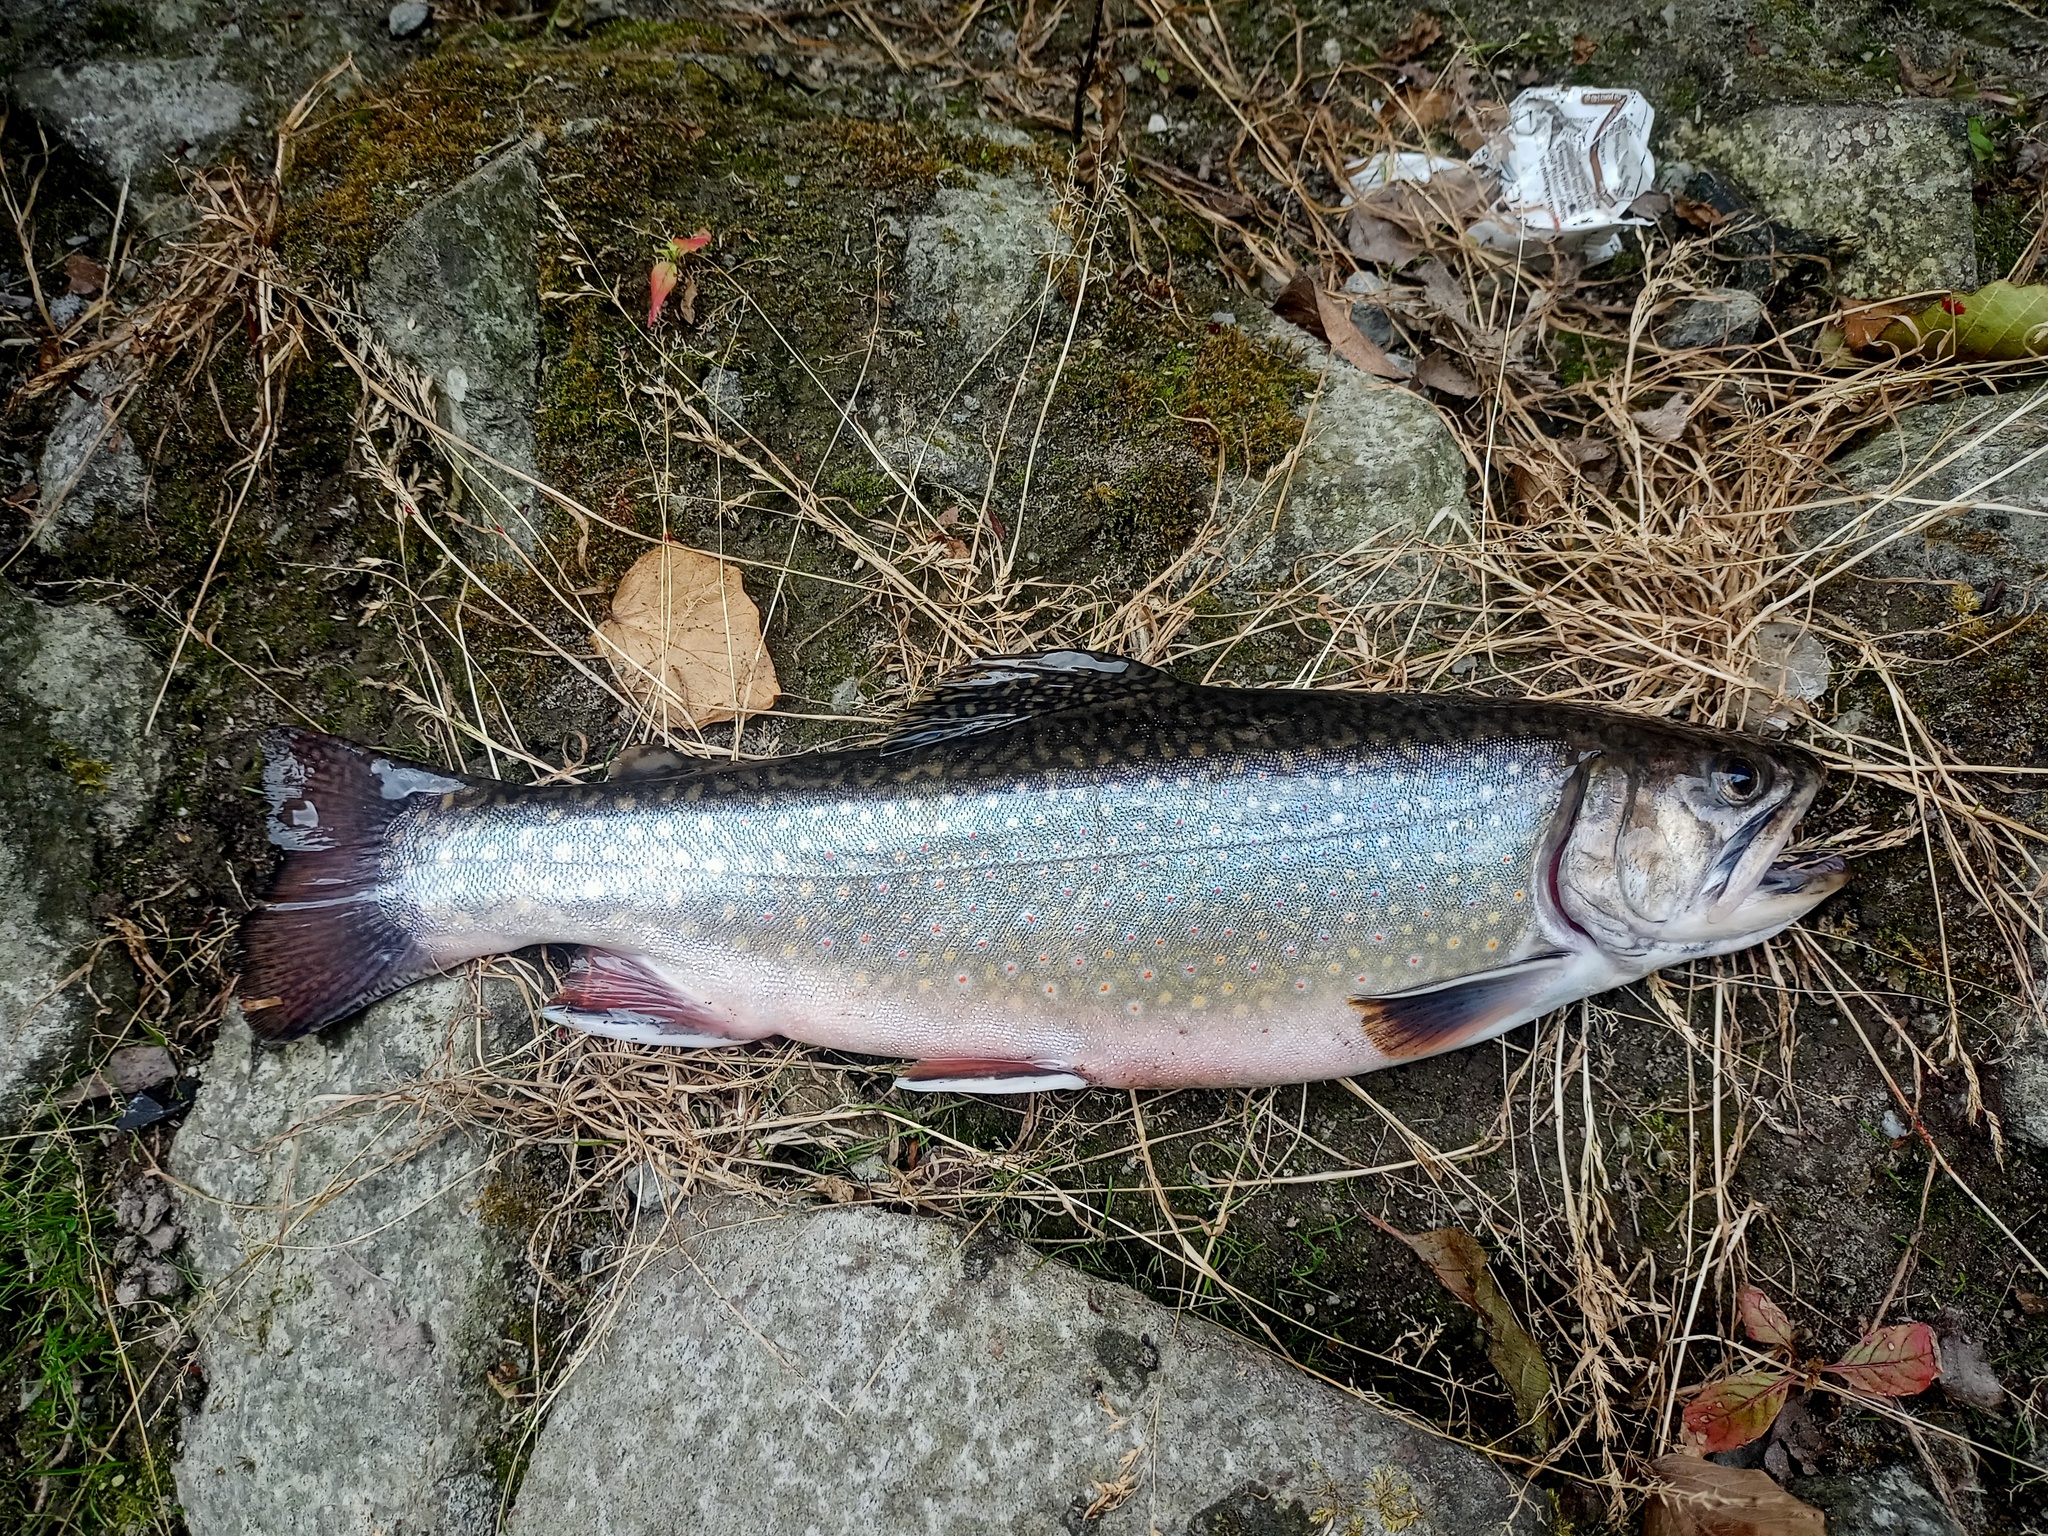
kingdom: Animalia
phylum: Chordata
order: Salmoniformes
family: Salmonidae
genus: Salvelinus
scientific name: Salvelinus fontinalis
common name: Brook trout
